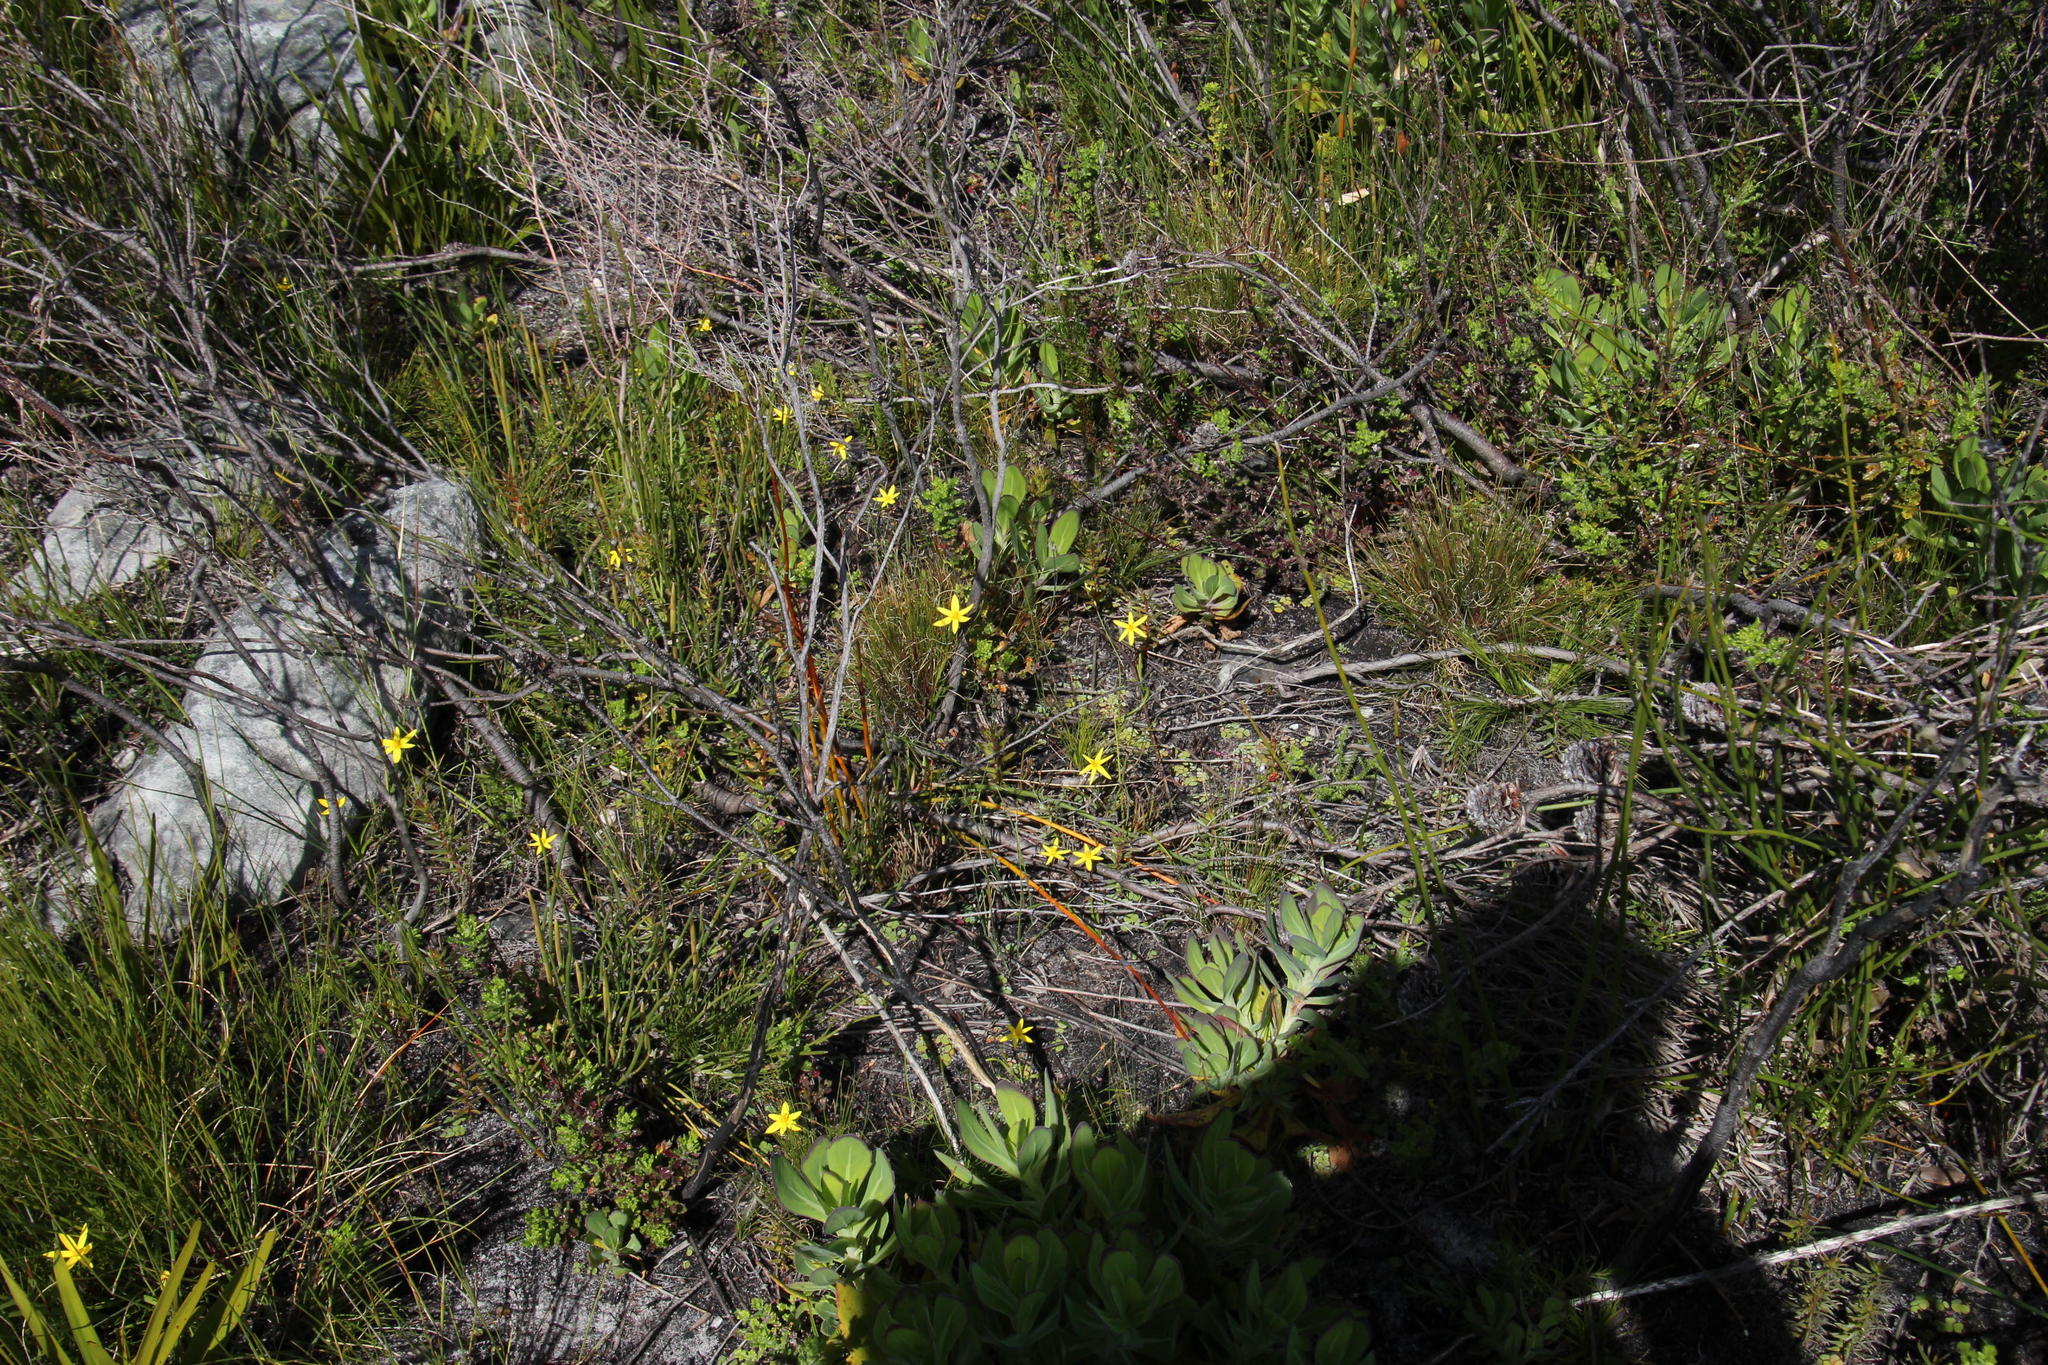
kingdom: Plantae
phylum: Tracheophyta
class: Liliopsida
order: Asparagales
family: Hypoxidaceae
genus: Pauridia
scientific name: Pauridia capensis
